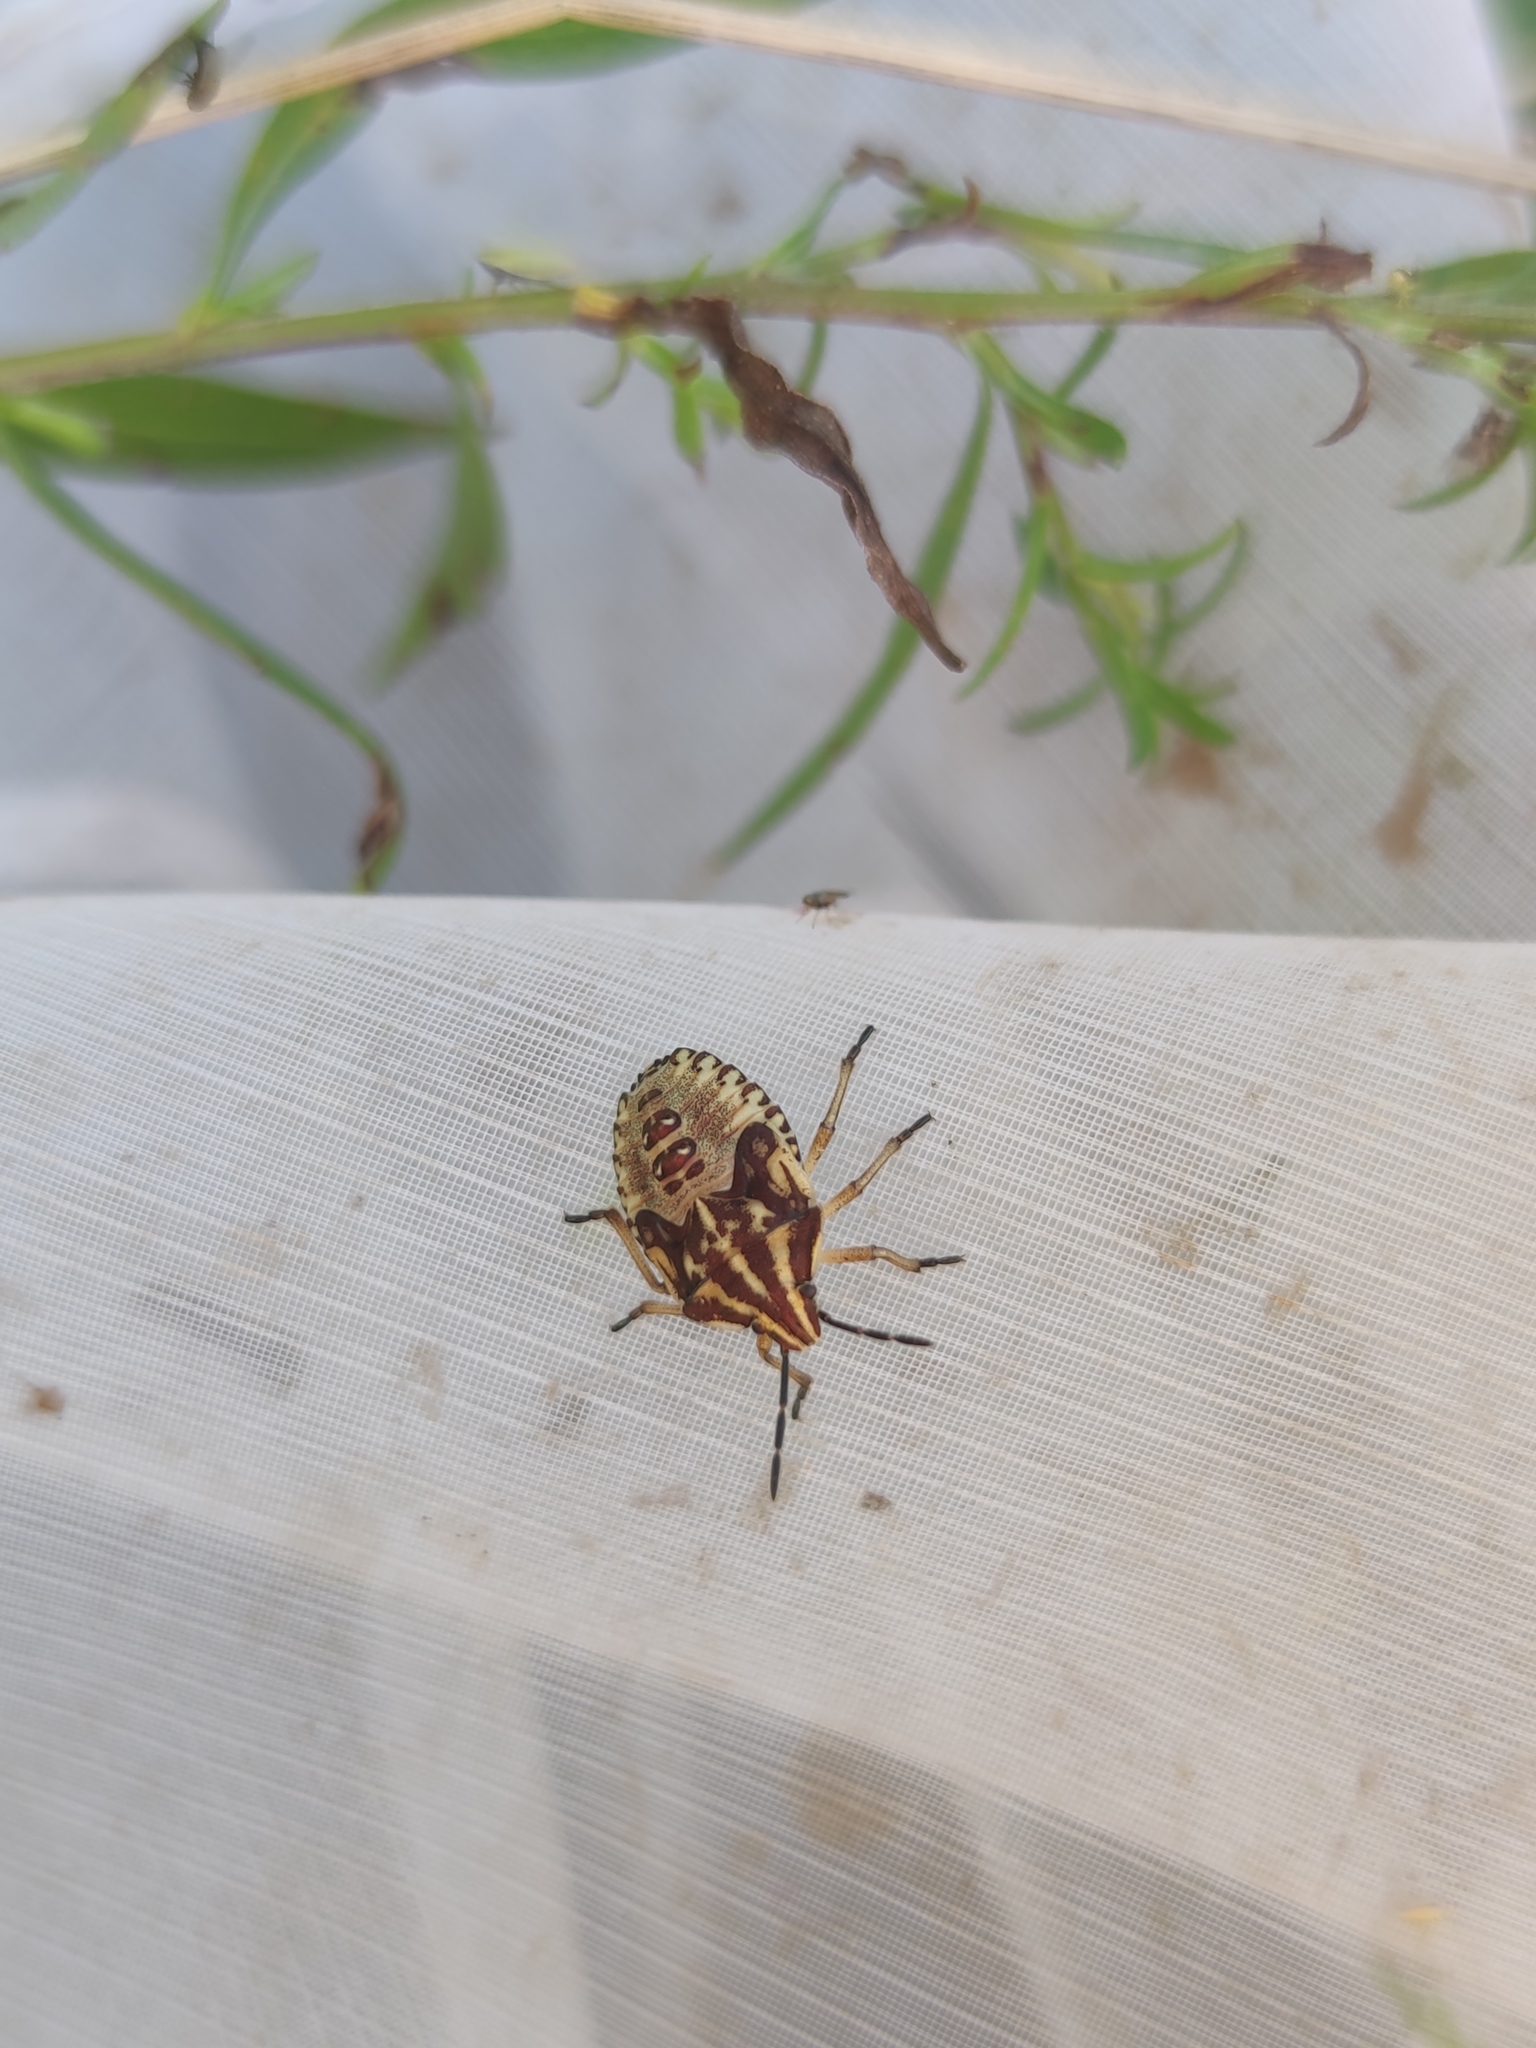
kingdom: Animalia
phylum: Arthropoda
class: Insecta
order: Hemiptera
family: Pentatomidae
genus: Carpocoris
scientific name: Carpocoris purpureipennis
